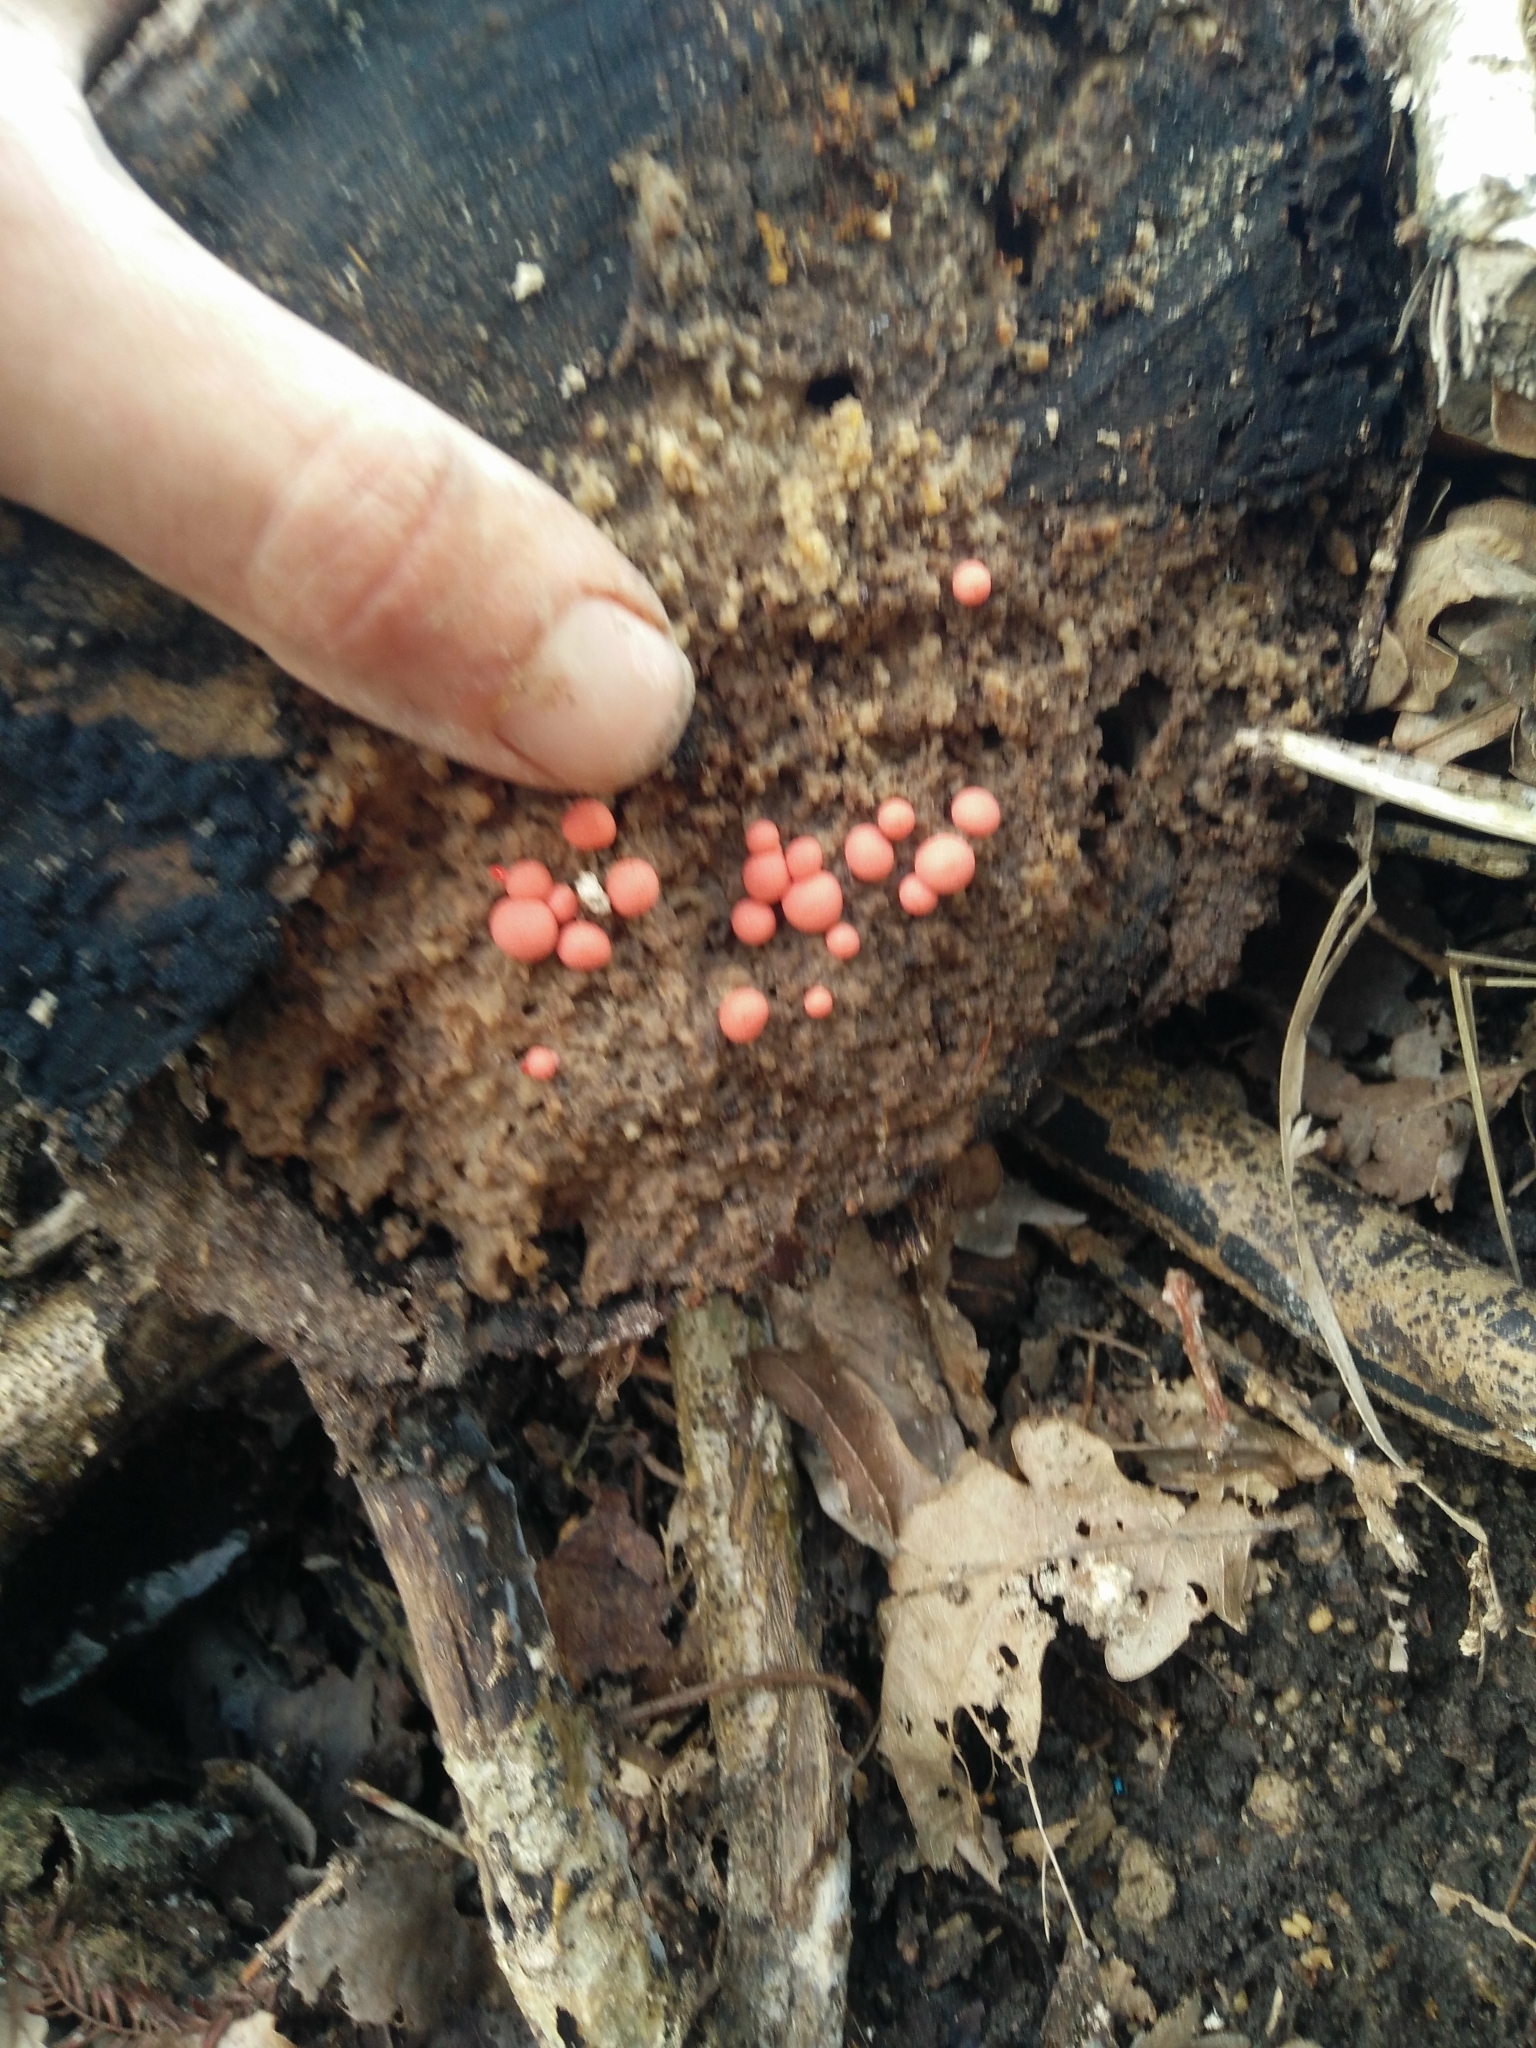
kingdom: Protozoa
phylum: Mycetozoa
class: Myxomycetes
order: Cribrariales
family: Tubiferaceae
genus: Lycogala
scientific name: Lycogala epidendrum
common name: Wolf's milk
